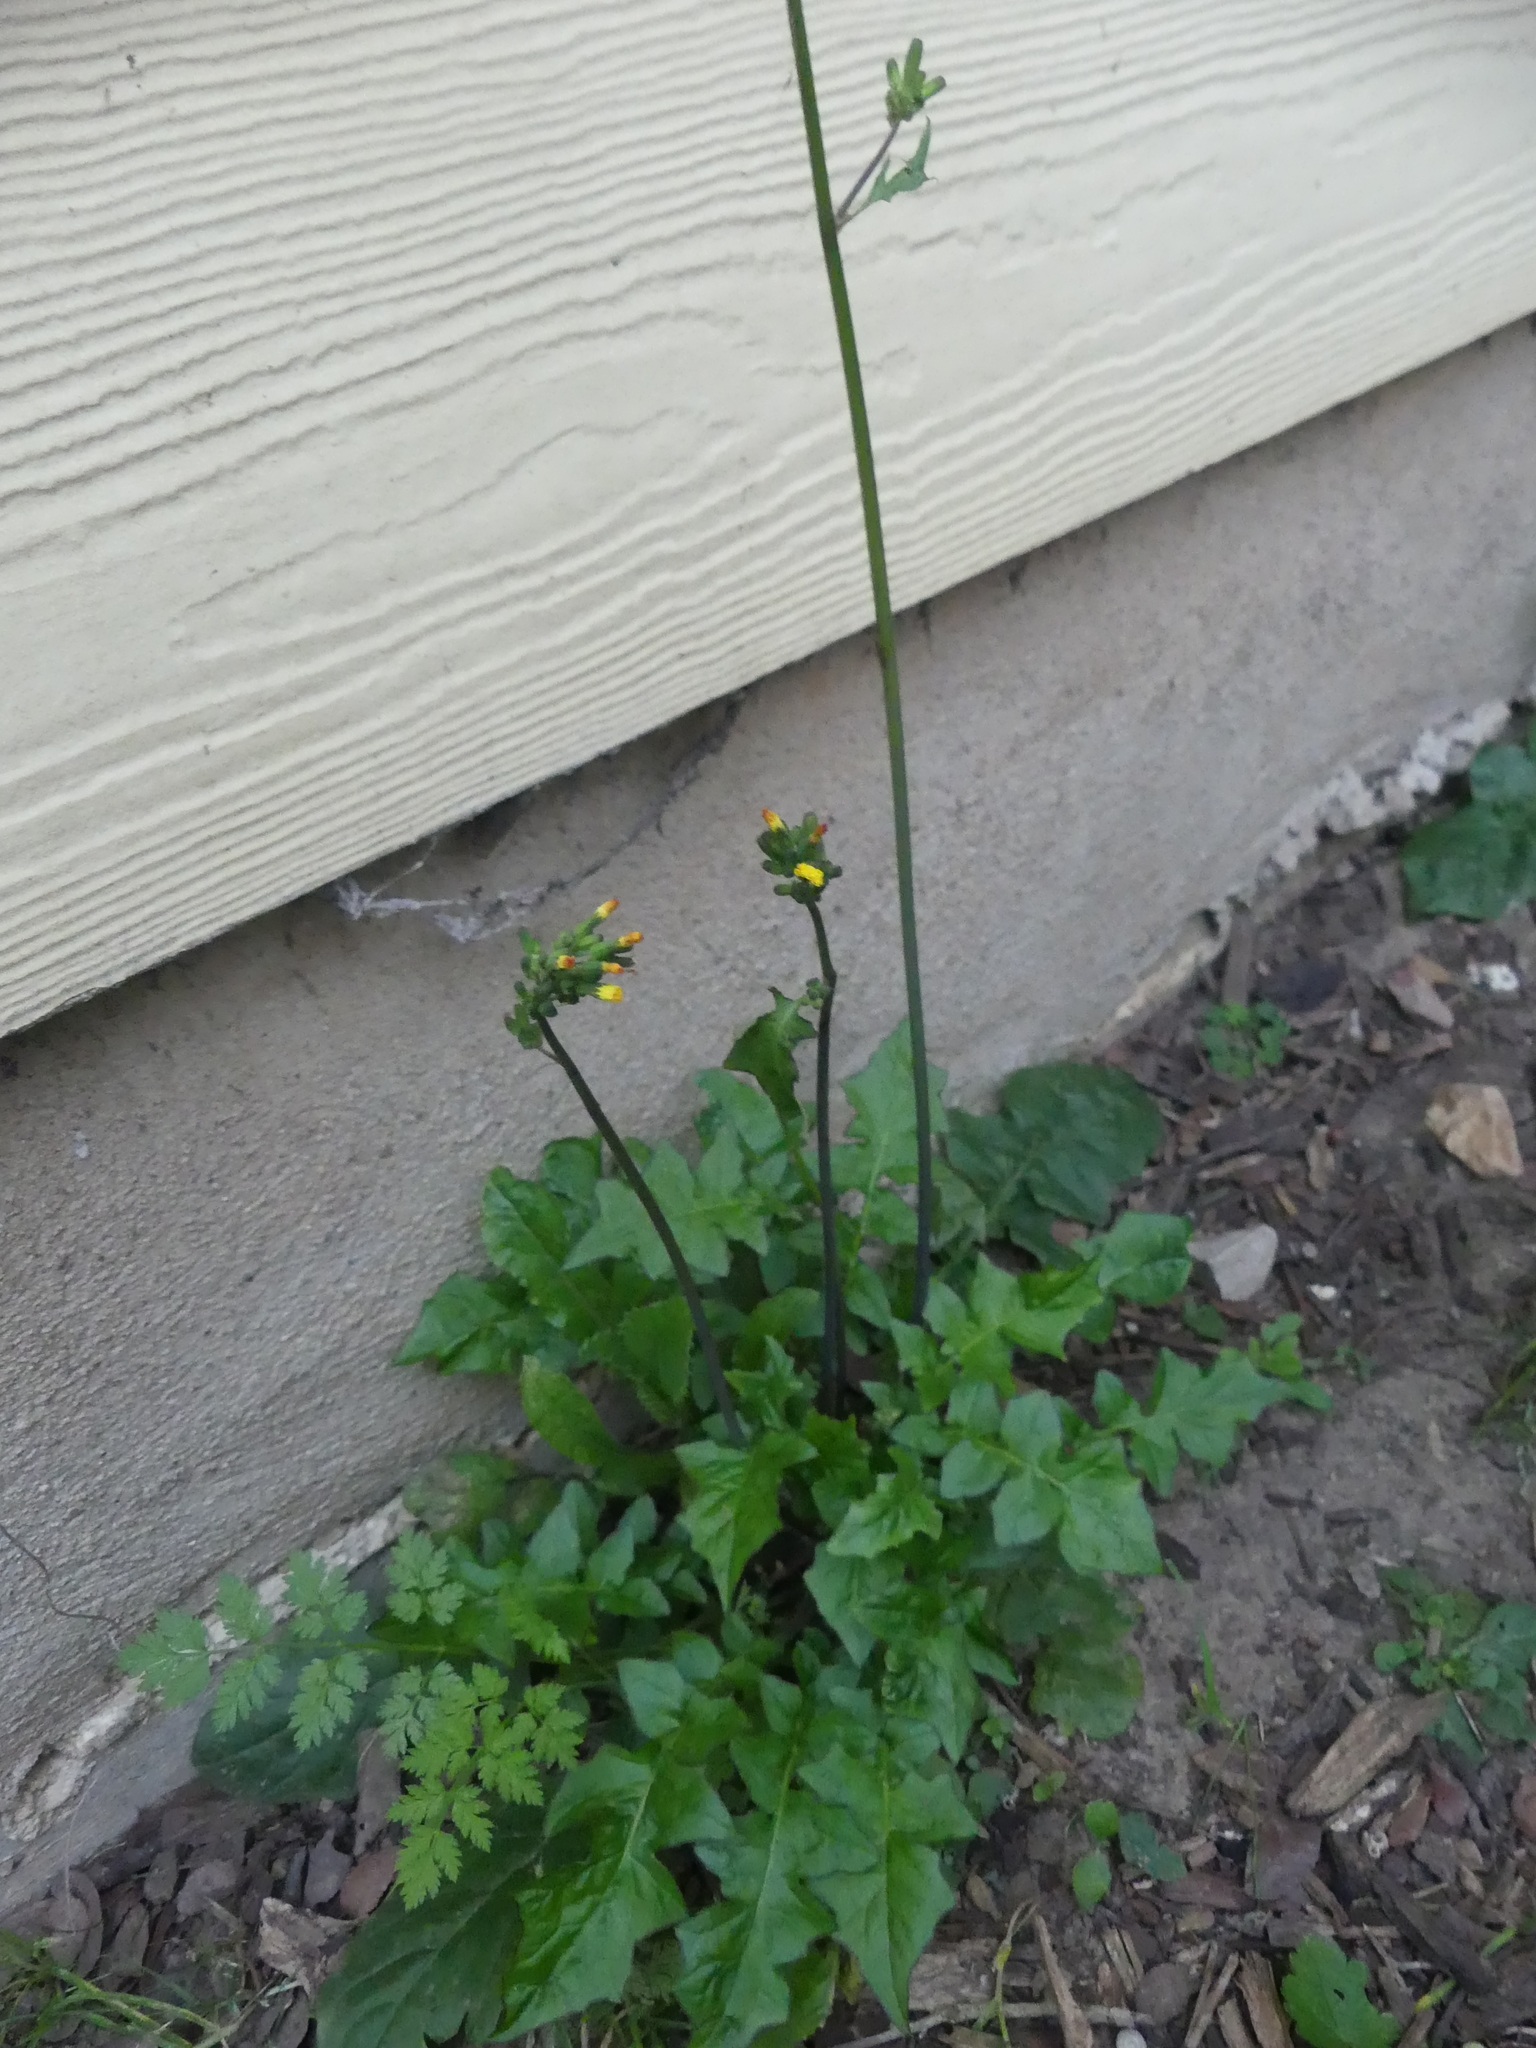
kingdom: Plantae
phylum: Tracheophyta
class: Magnoliopsida
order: Asterales
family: Asteraceae
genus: Youngia
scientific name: Youngia japonica
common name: Oriental false hawksbeard
